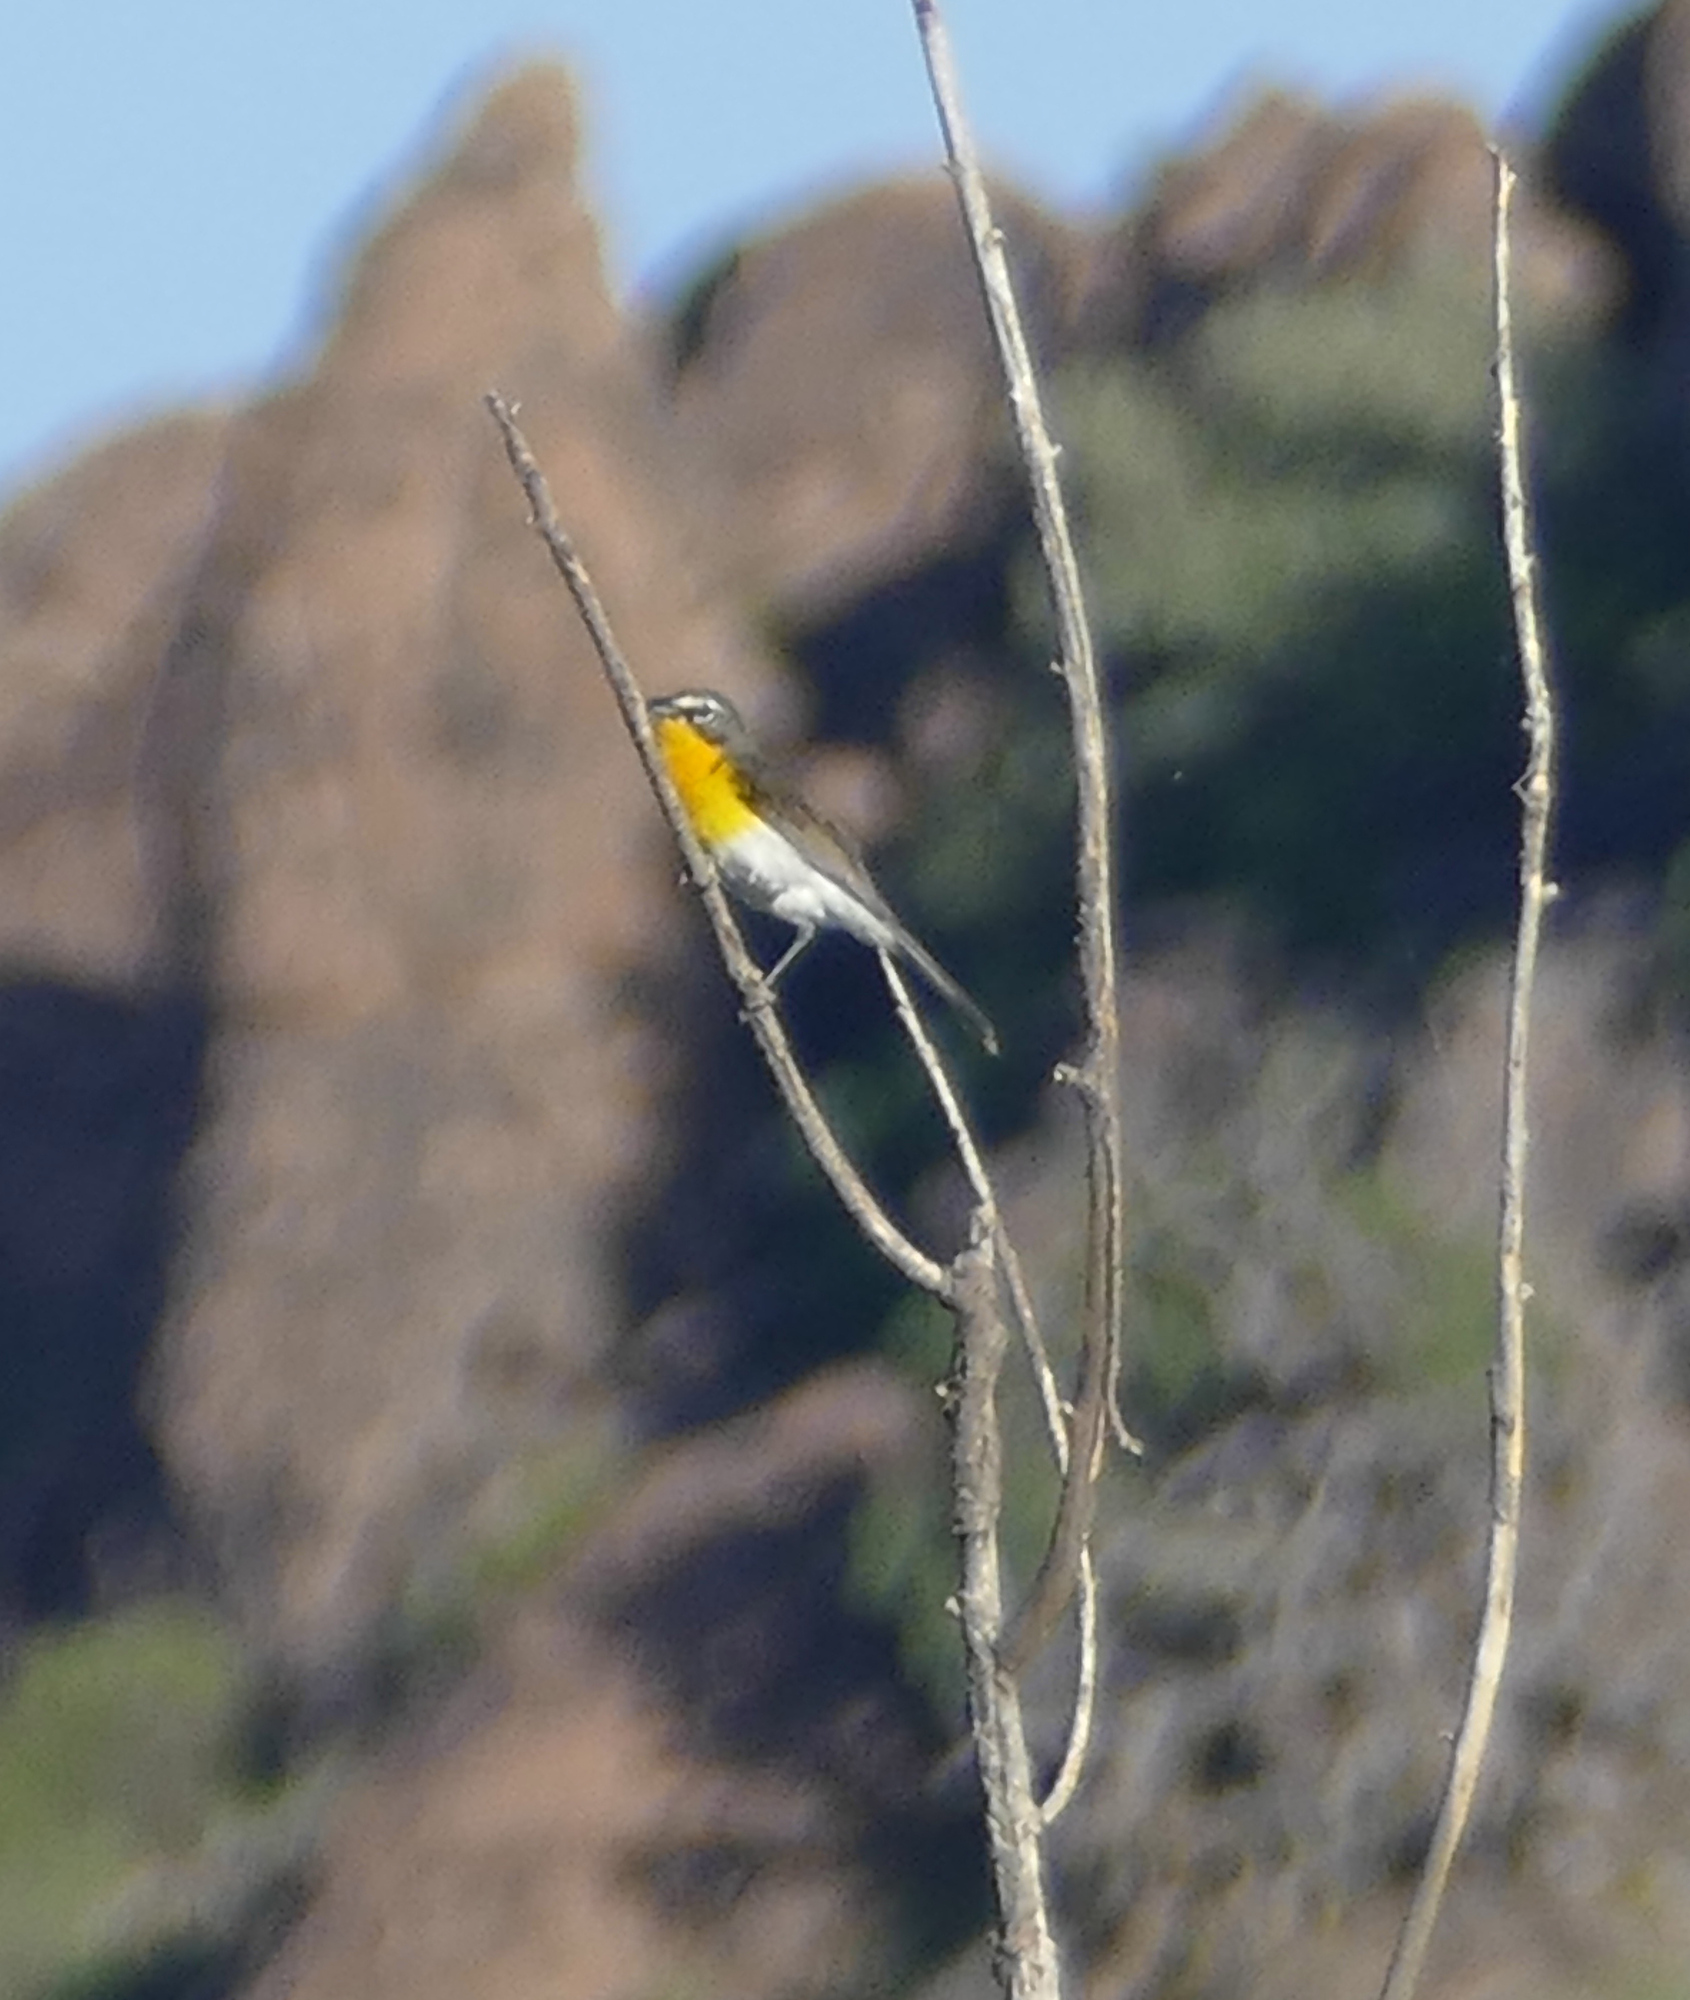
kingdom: Animalia
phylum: Chordata
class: Aves
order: Passeriformes
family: Parulidae
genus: Icteria
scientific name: Icteria virens
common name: Yellow-breasted chat
